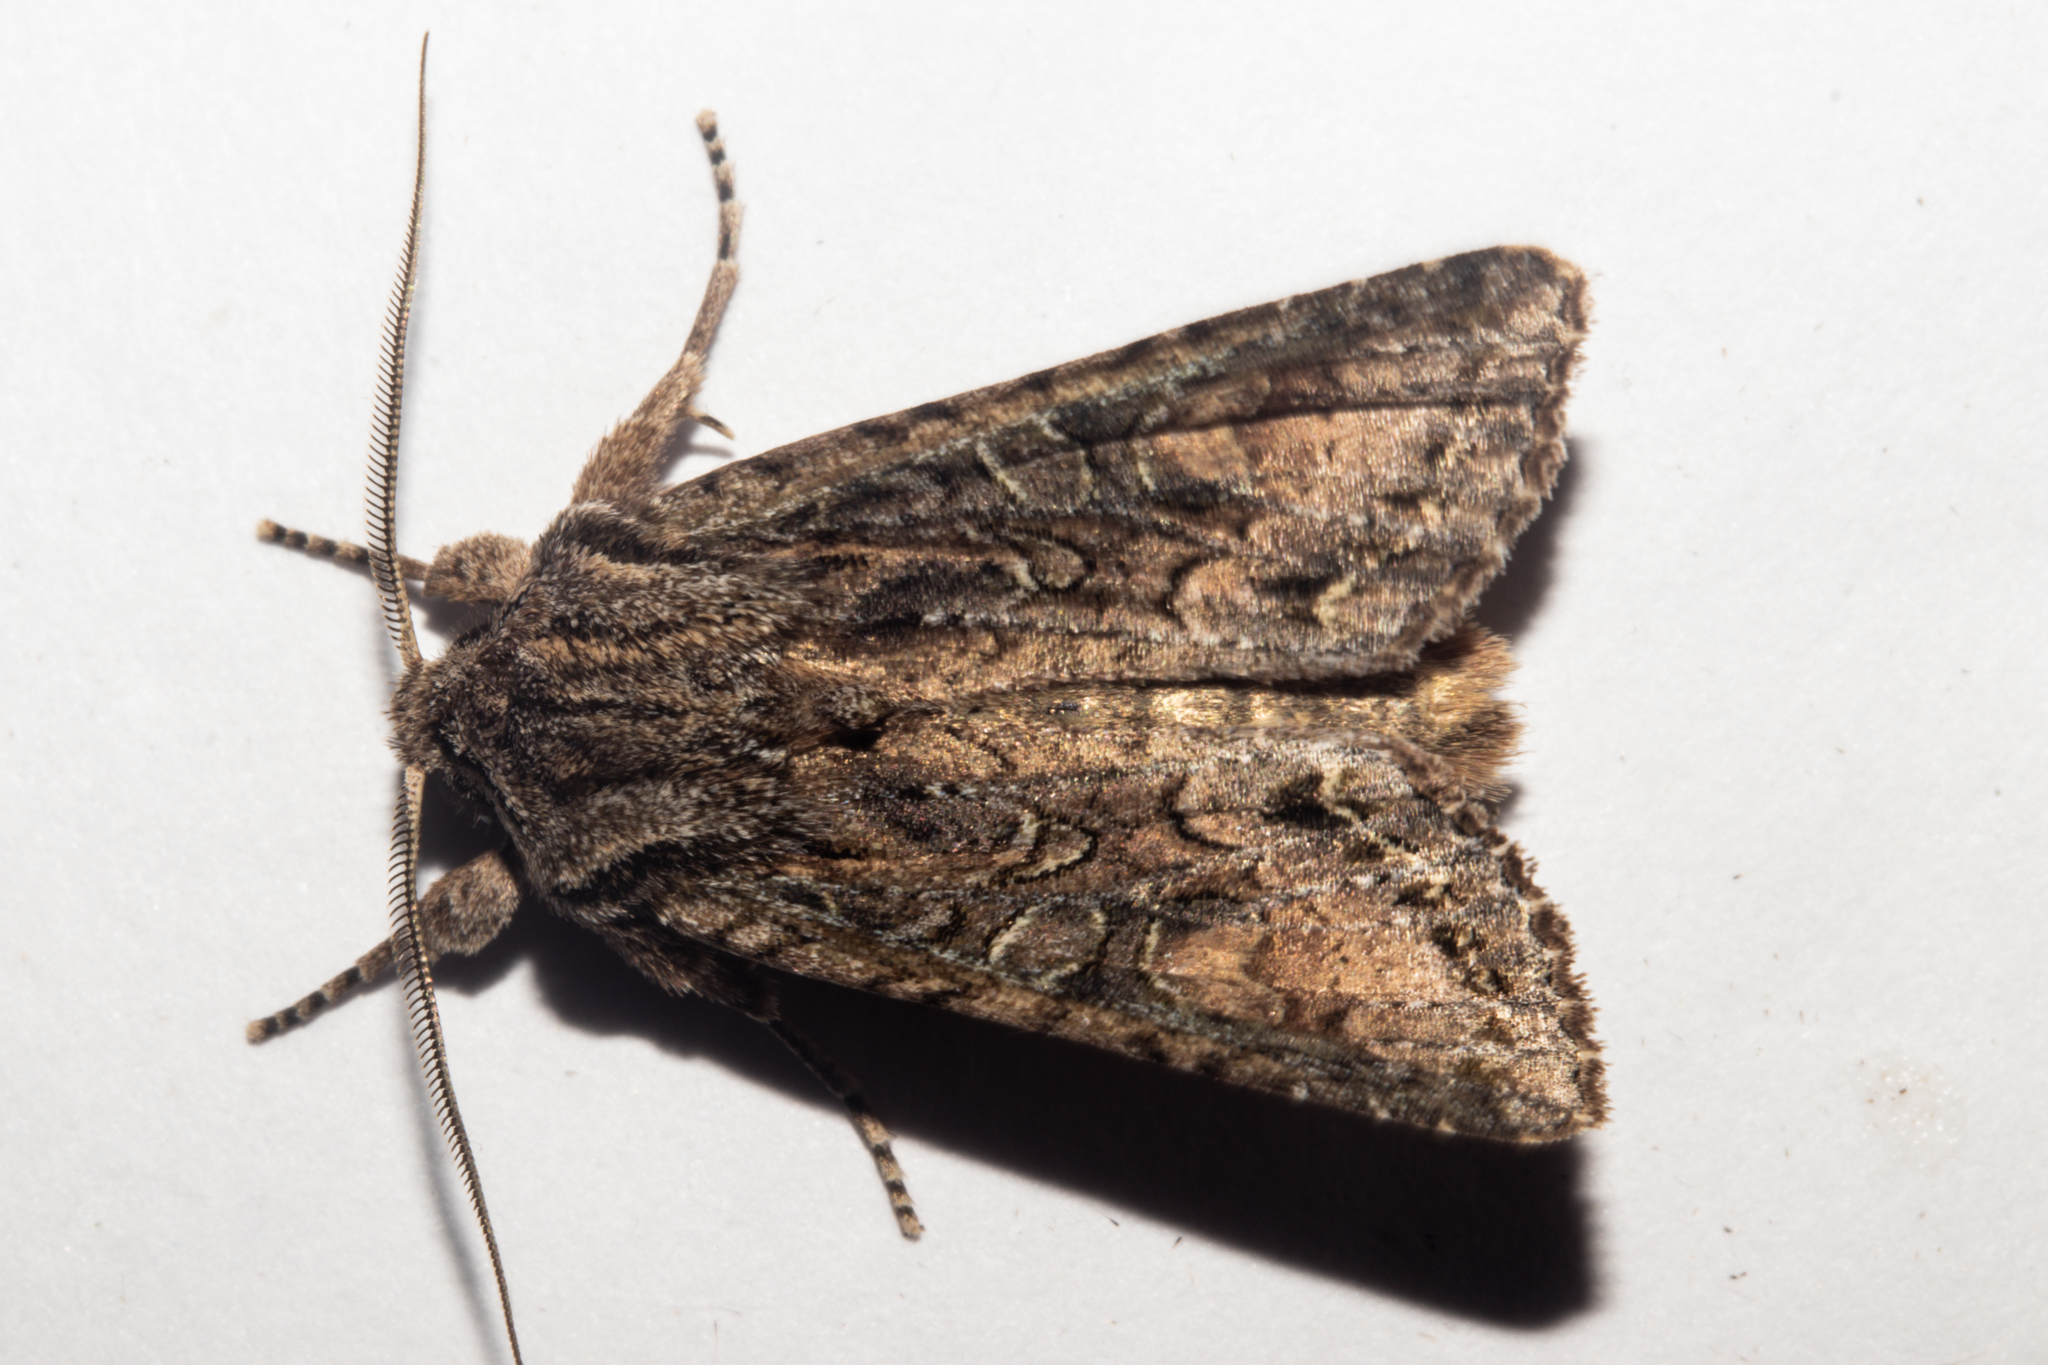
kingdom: Animalia
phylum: Arthropoda
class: Insecta
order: Lepidoptera
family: Noctuidae
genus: Ichneutica
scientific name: Ichneutica mutans
